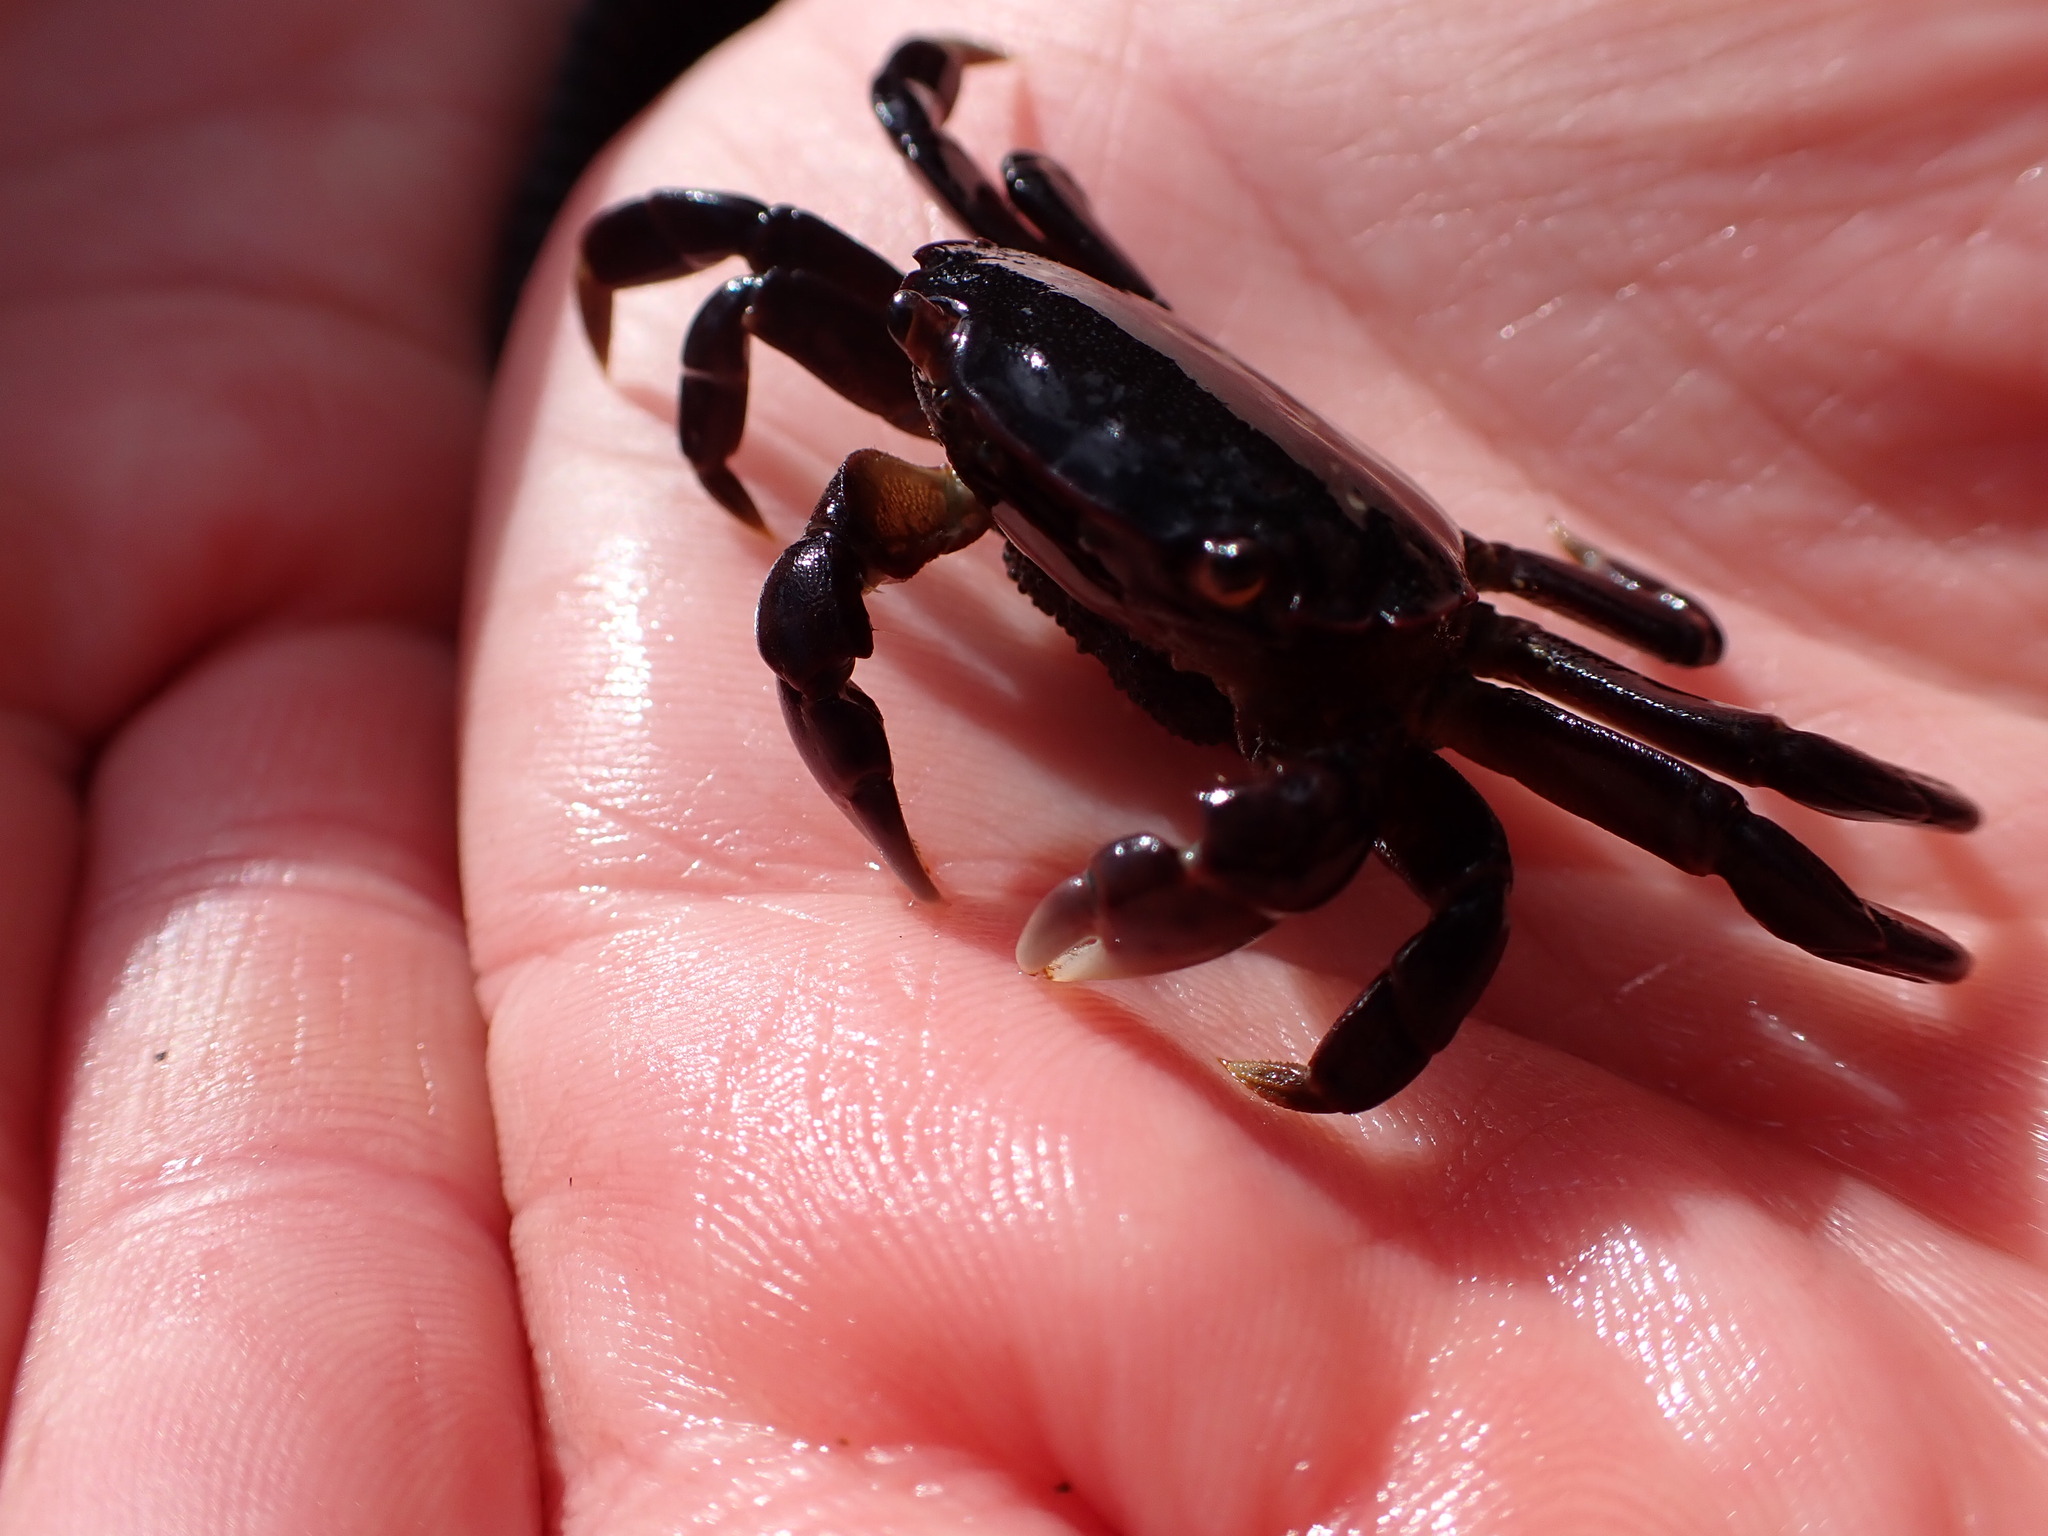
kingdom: Animalia
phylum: Arthropoda
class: Malacostraca
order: Decapoda
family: Varunidae
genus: Hemigrapsus
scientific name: Hemigrapsus nudus
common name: Purple shore crab
